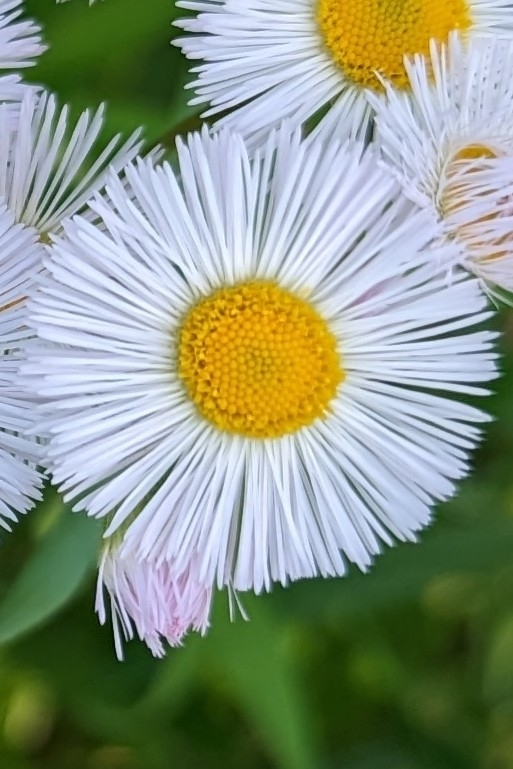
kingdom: Plantae
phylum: Tracheophyta
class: Magnoliopsida
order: Asterales
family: Asteraceae
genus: Erigeron
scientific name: Erigeron philadelphicus
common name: Robin's-plantain
